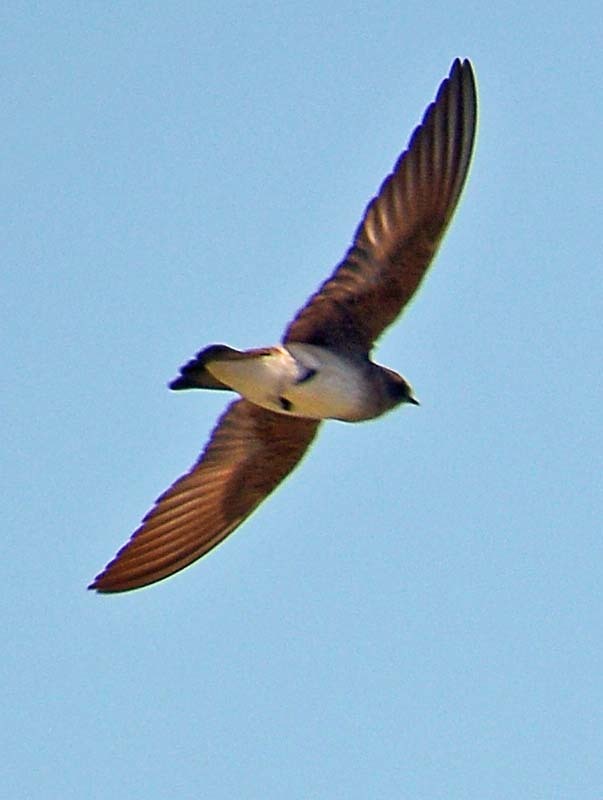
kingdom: Animalia
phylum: Chordata
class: Aves
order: Passeriformes
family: Hirundinidae
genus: Stelgidopteryx
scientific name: Stelgidopteryx serripennis
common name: Northern rough-winged swallow
